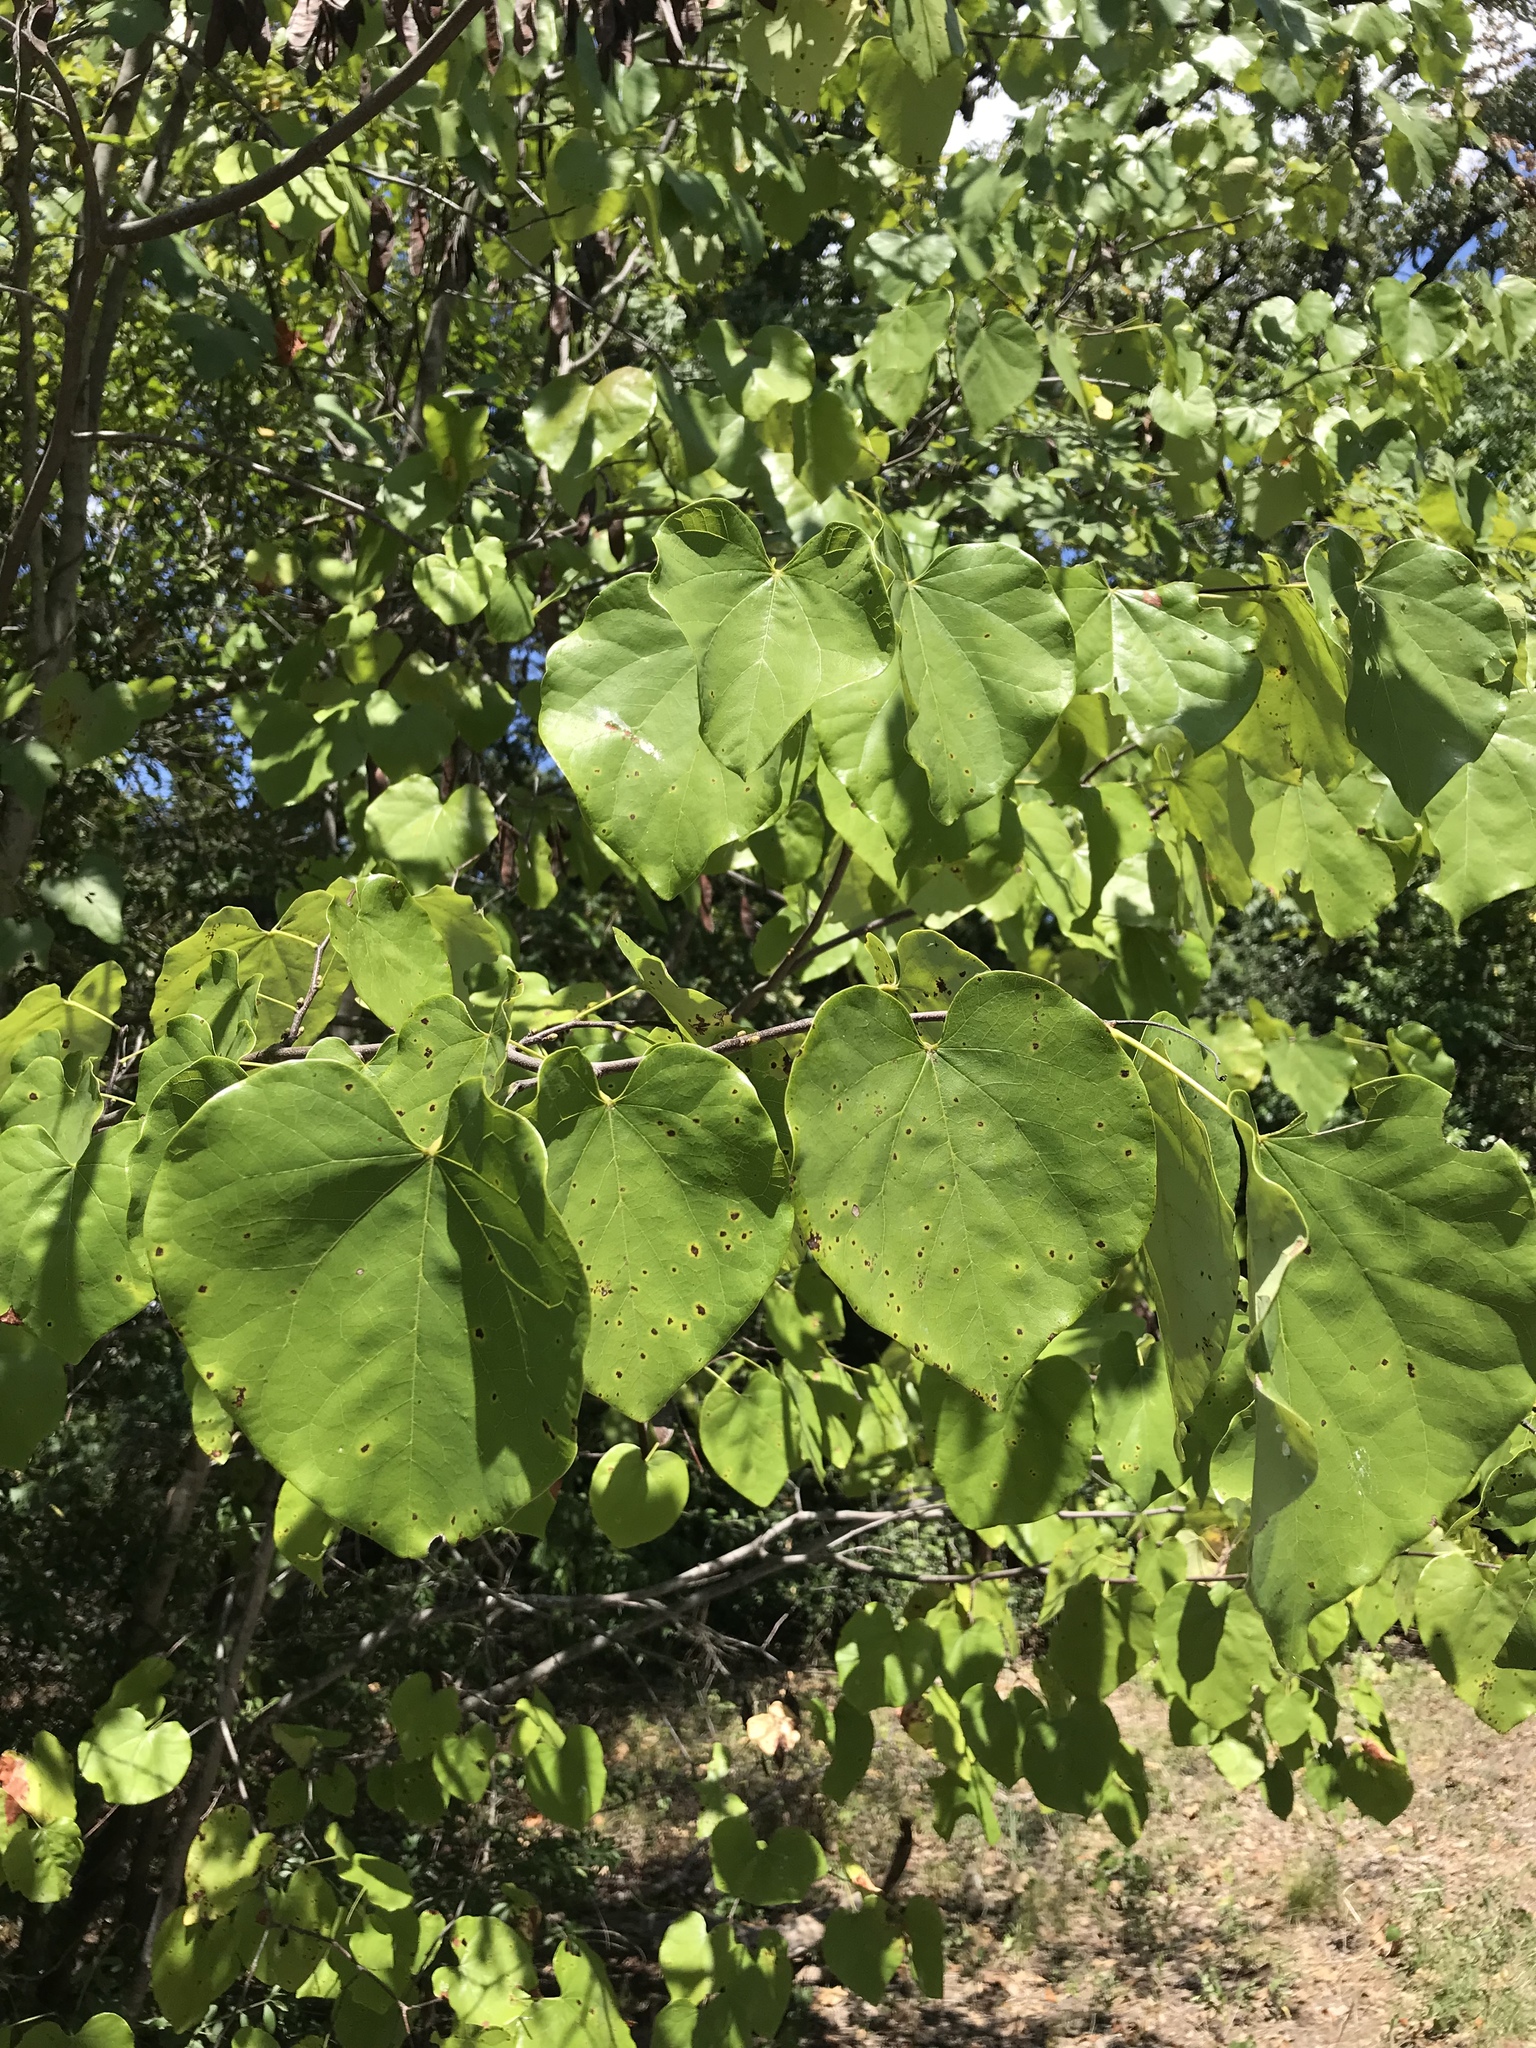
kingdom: Plantae
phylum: Tracheophyta
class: Magnoliopsida
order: Fabales
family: Fabaceae
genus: Cercis
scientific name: Cercis canadensis
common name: Eastern redbud
